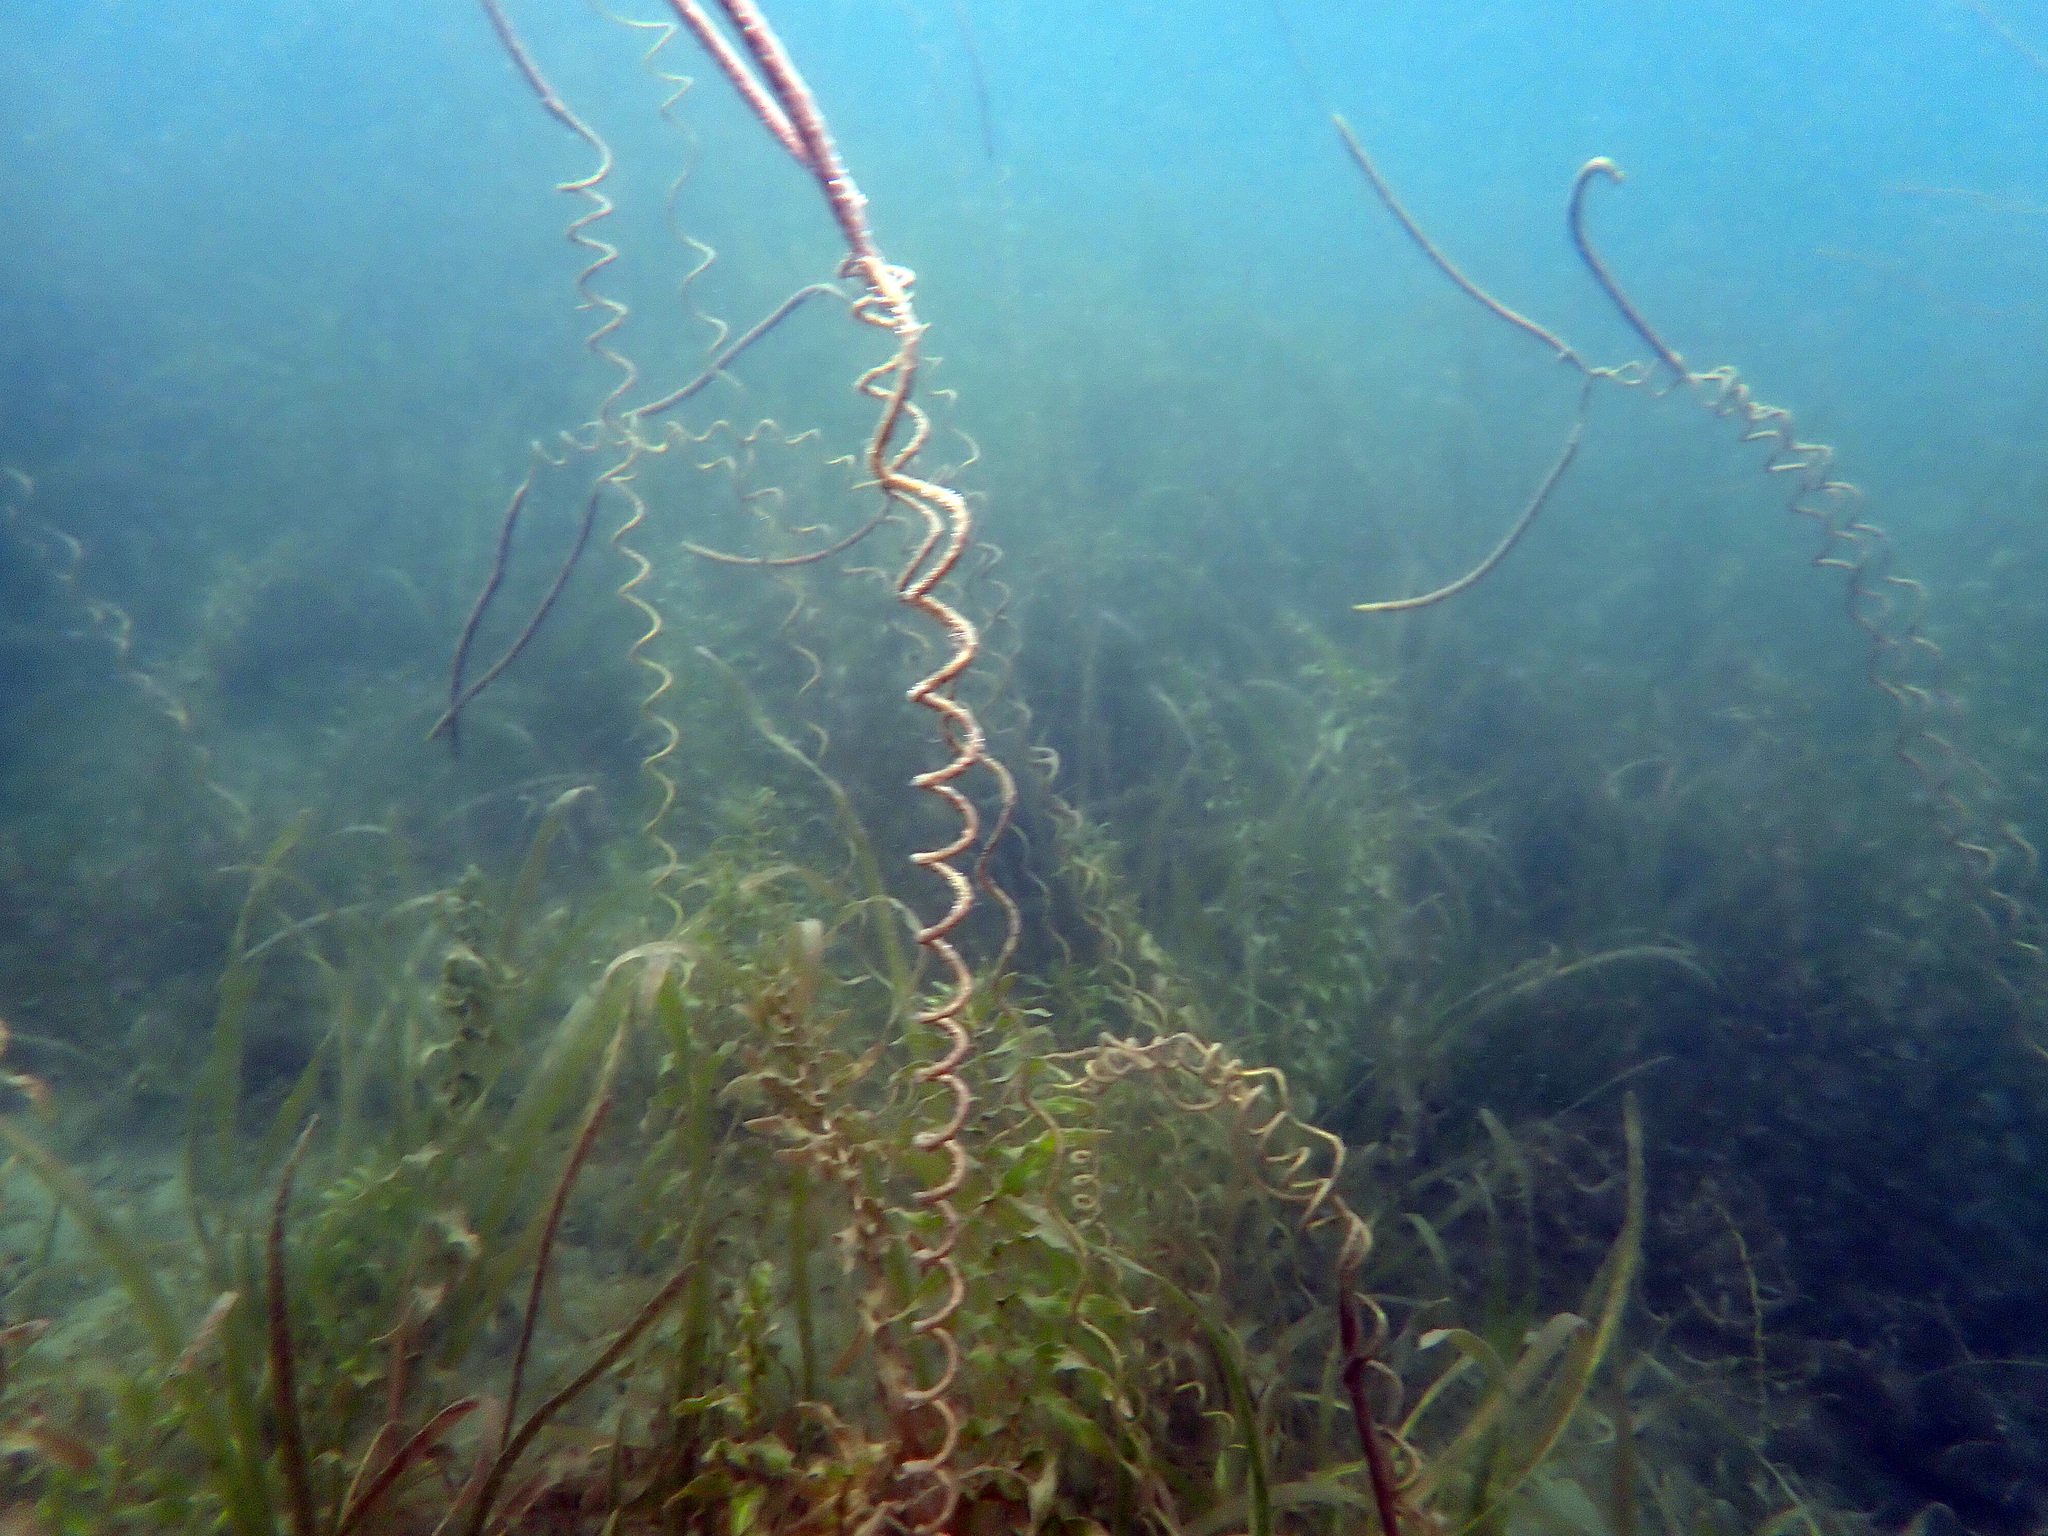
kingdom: Plantae
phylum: Tracheophyta
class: Liliopsida
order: Alismatales
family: Hydrocharitaceae
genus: Vallisneria
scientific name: Vallisneria americana
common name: American eelgrass
